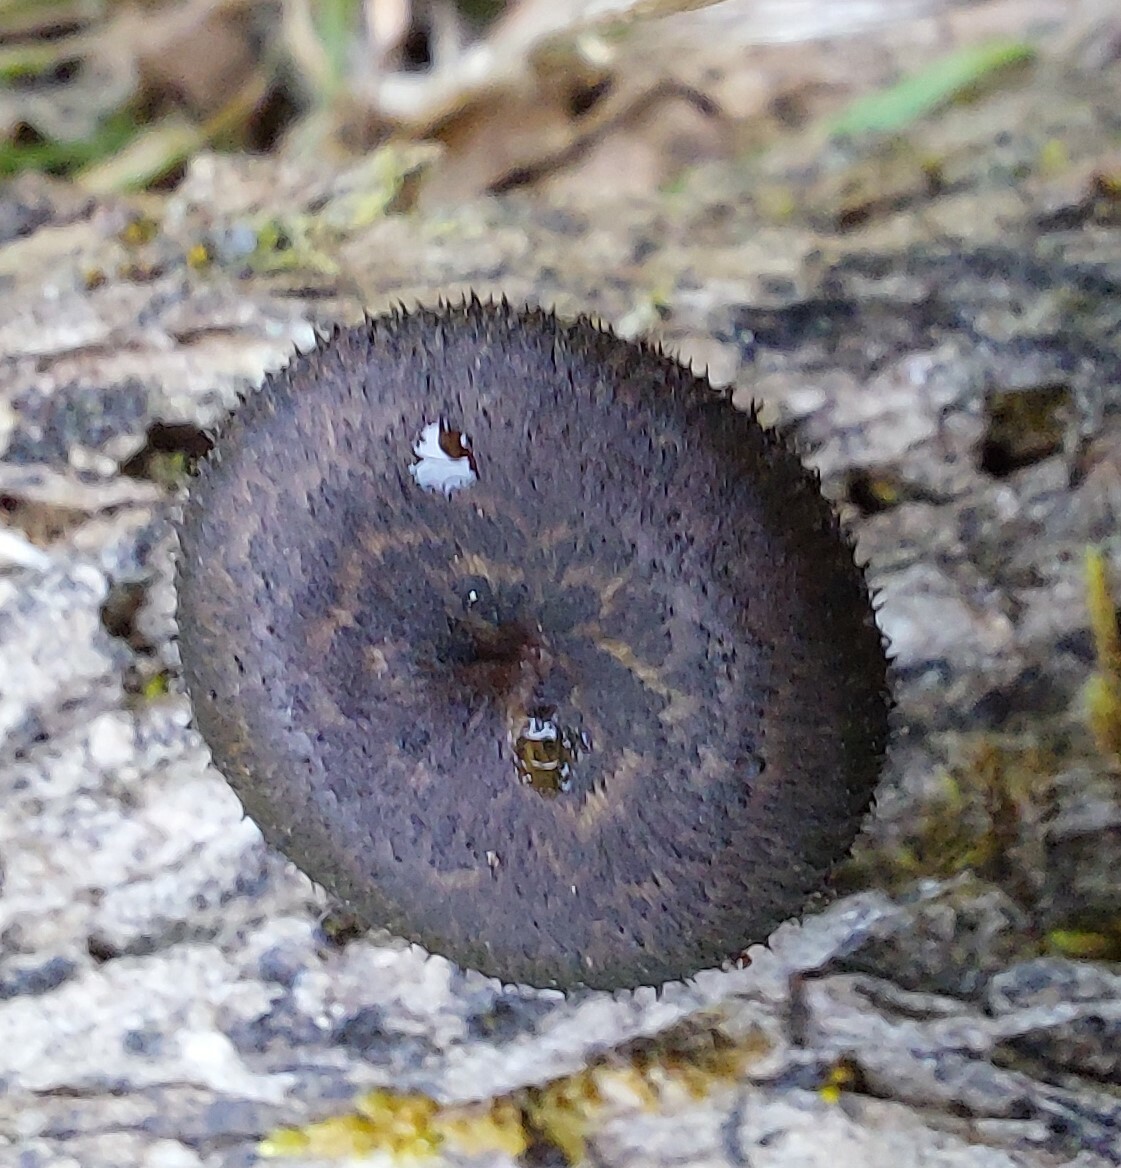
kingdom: Fungi
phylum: Basidiomycota
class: Agaricomycetes
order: Polyporales
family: Polyporaceae
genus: Lentinus
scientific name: Lentinus arcularius
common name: Spring polypore
